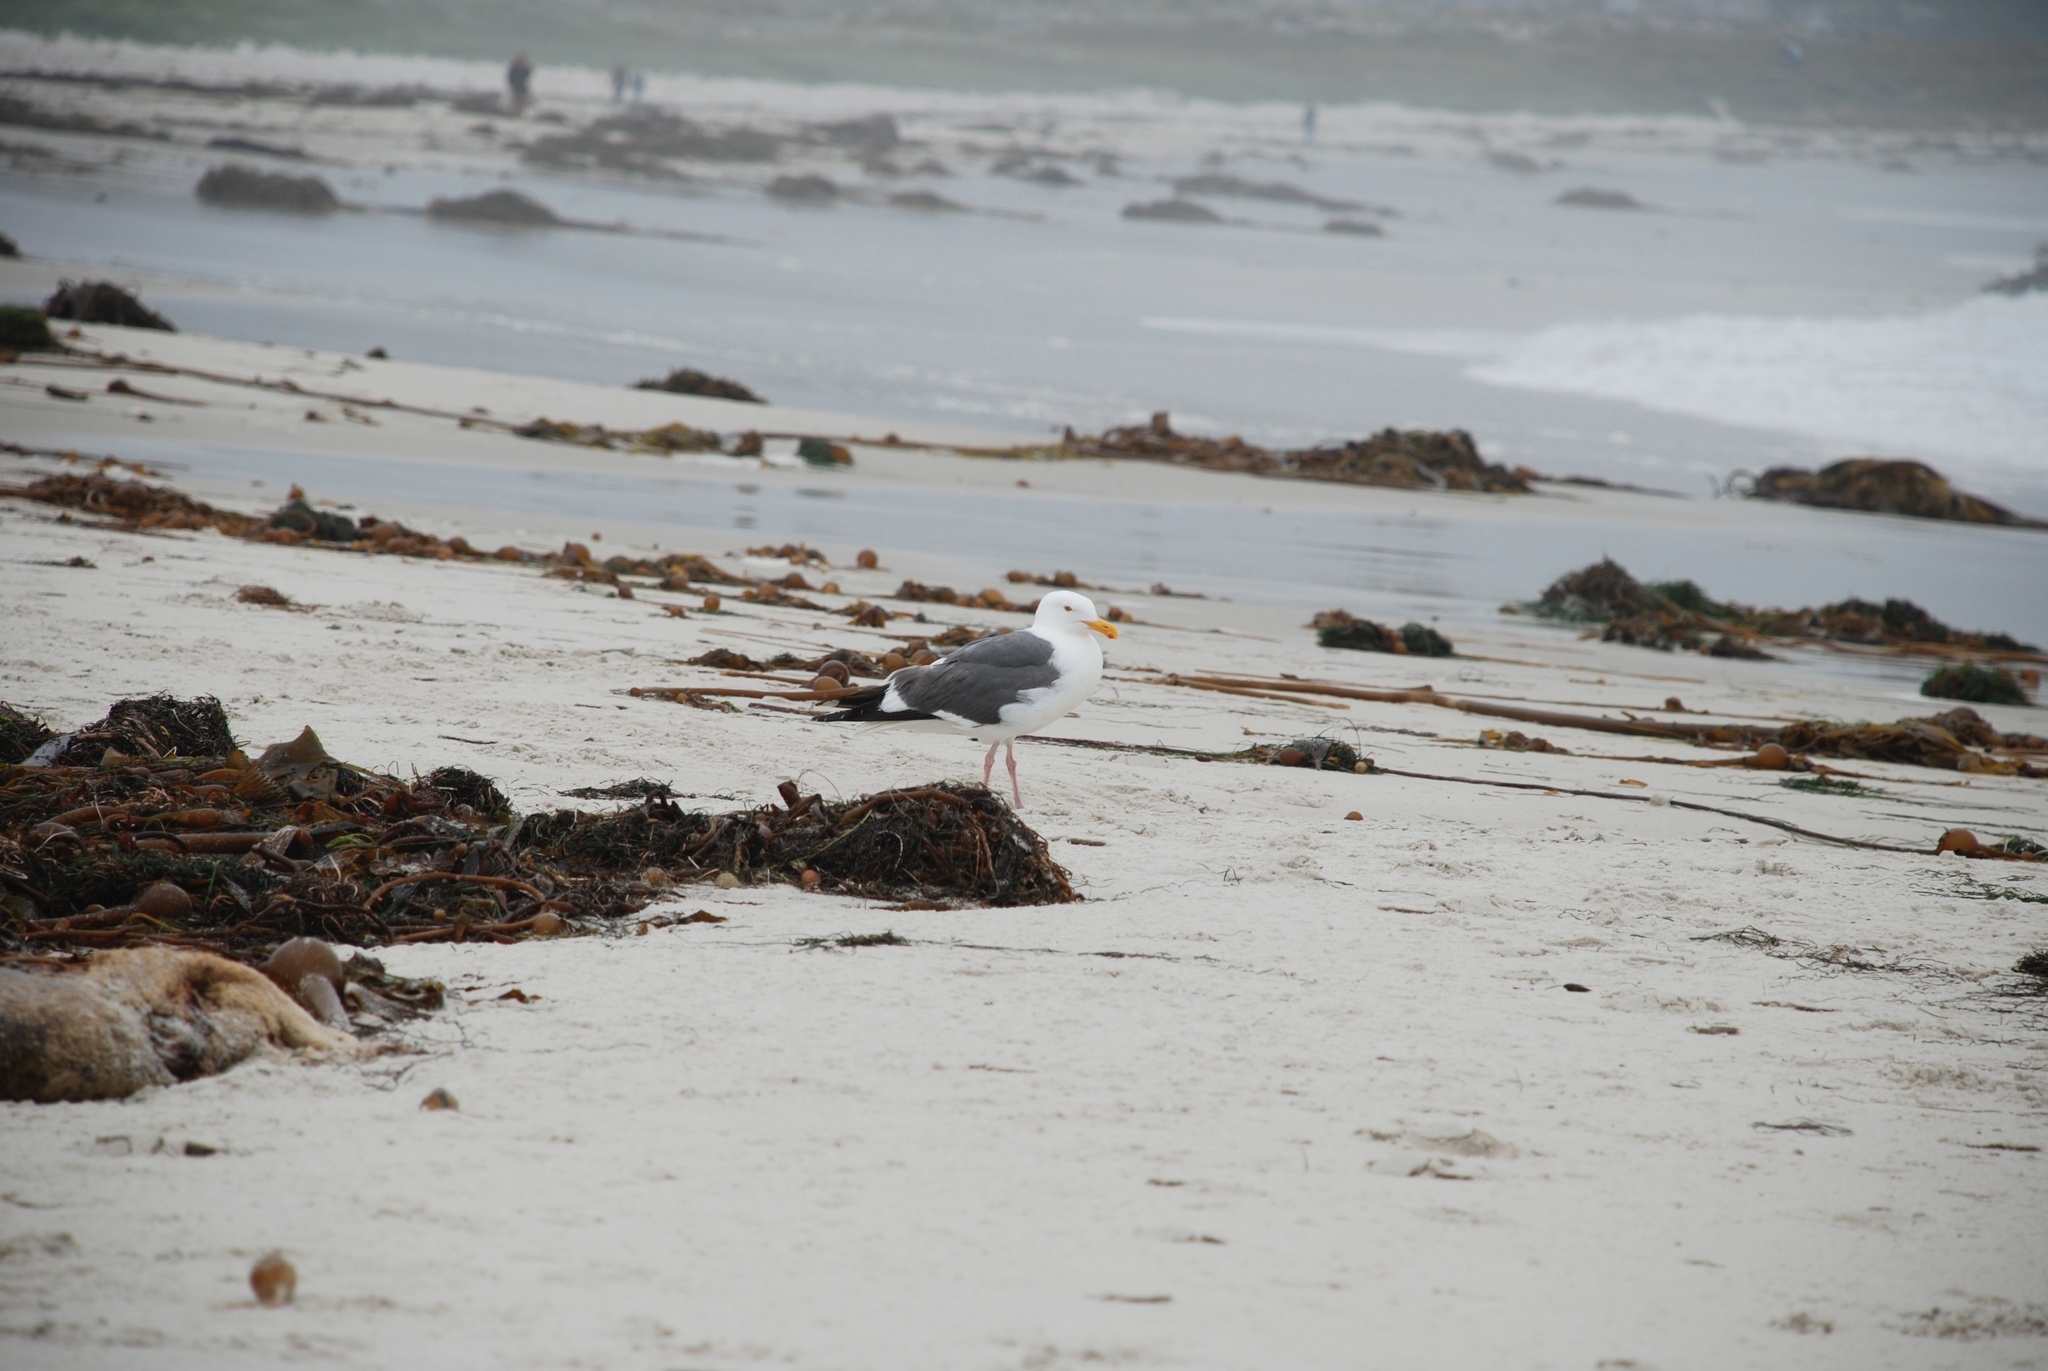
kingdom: Animalia
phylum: Chordata
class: Aves
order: Charadriiformes
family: Laridae
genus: Larus
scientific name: Larus occidentalis
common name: Western gull
